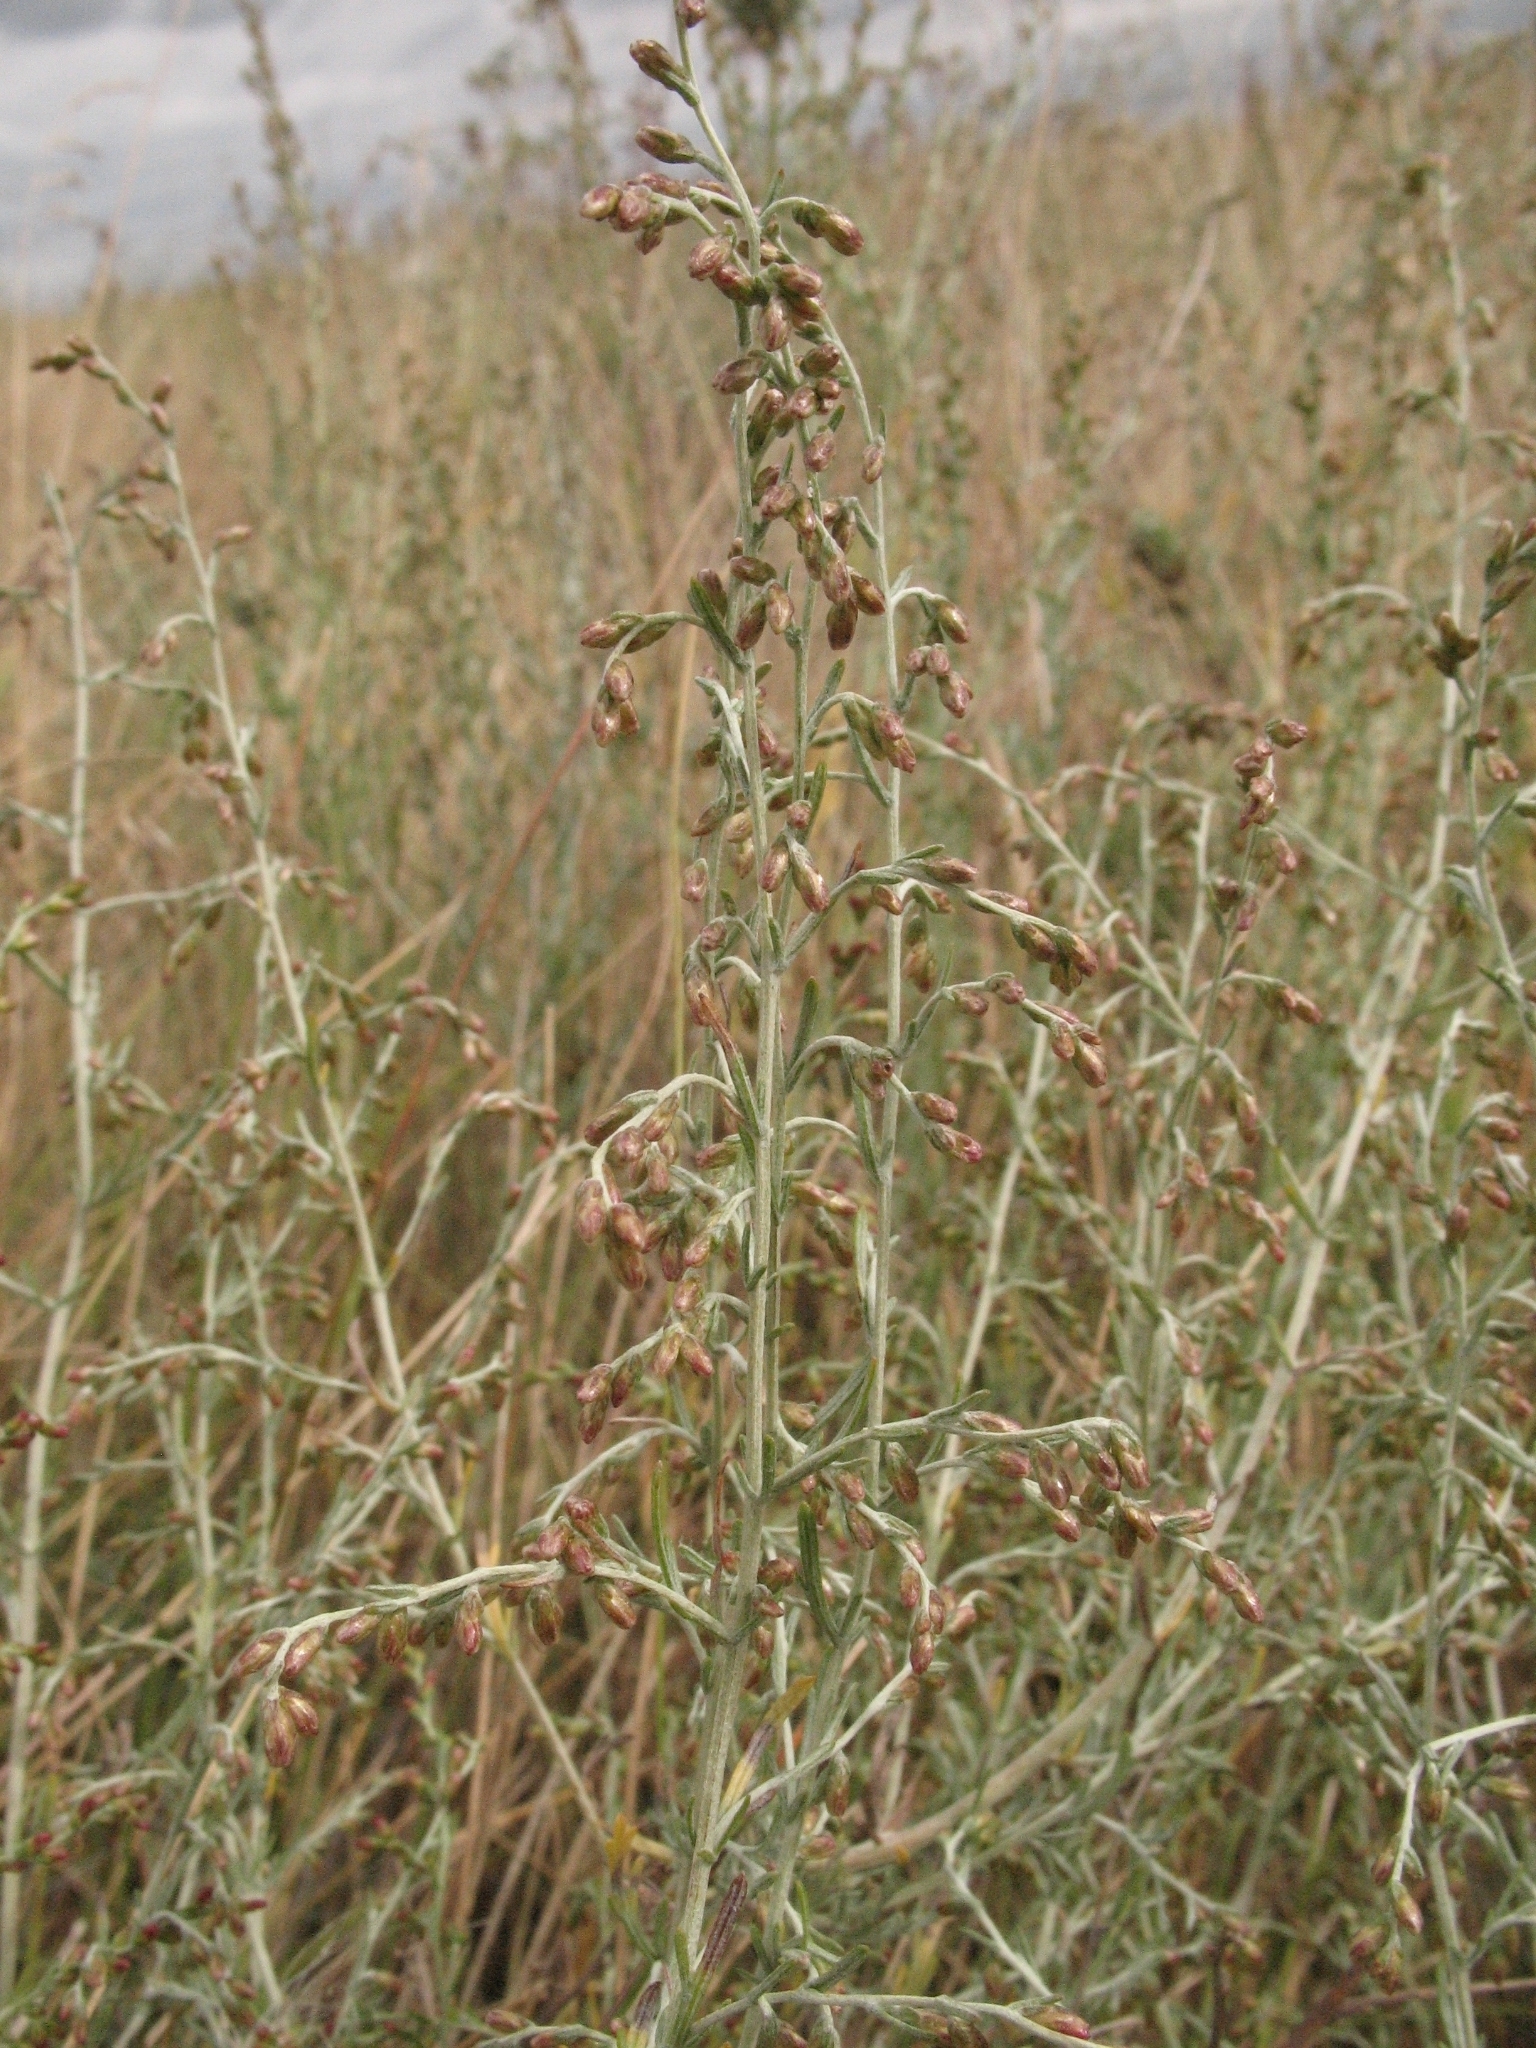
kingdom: Plantae
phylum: Tracheophyta
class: Magnoliopsida
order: Asterales
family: Asteraceae
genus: Artemisia
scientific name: Artemisia santonicum
